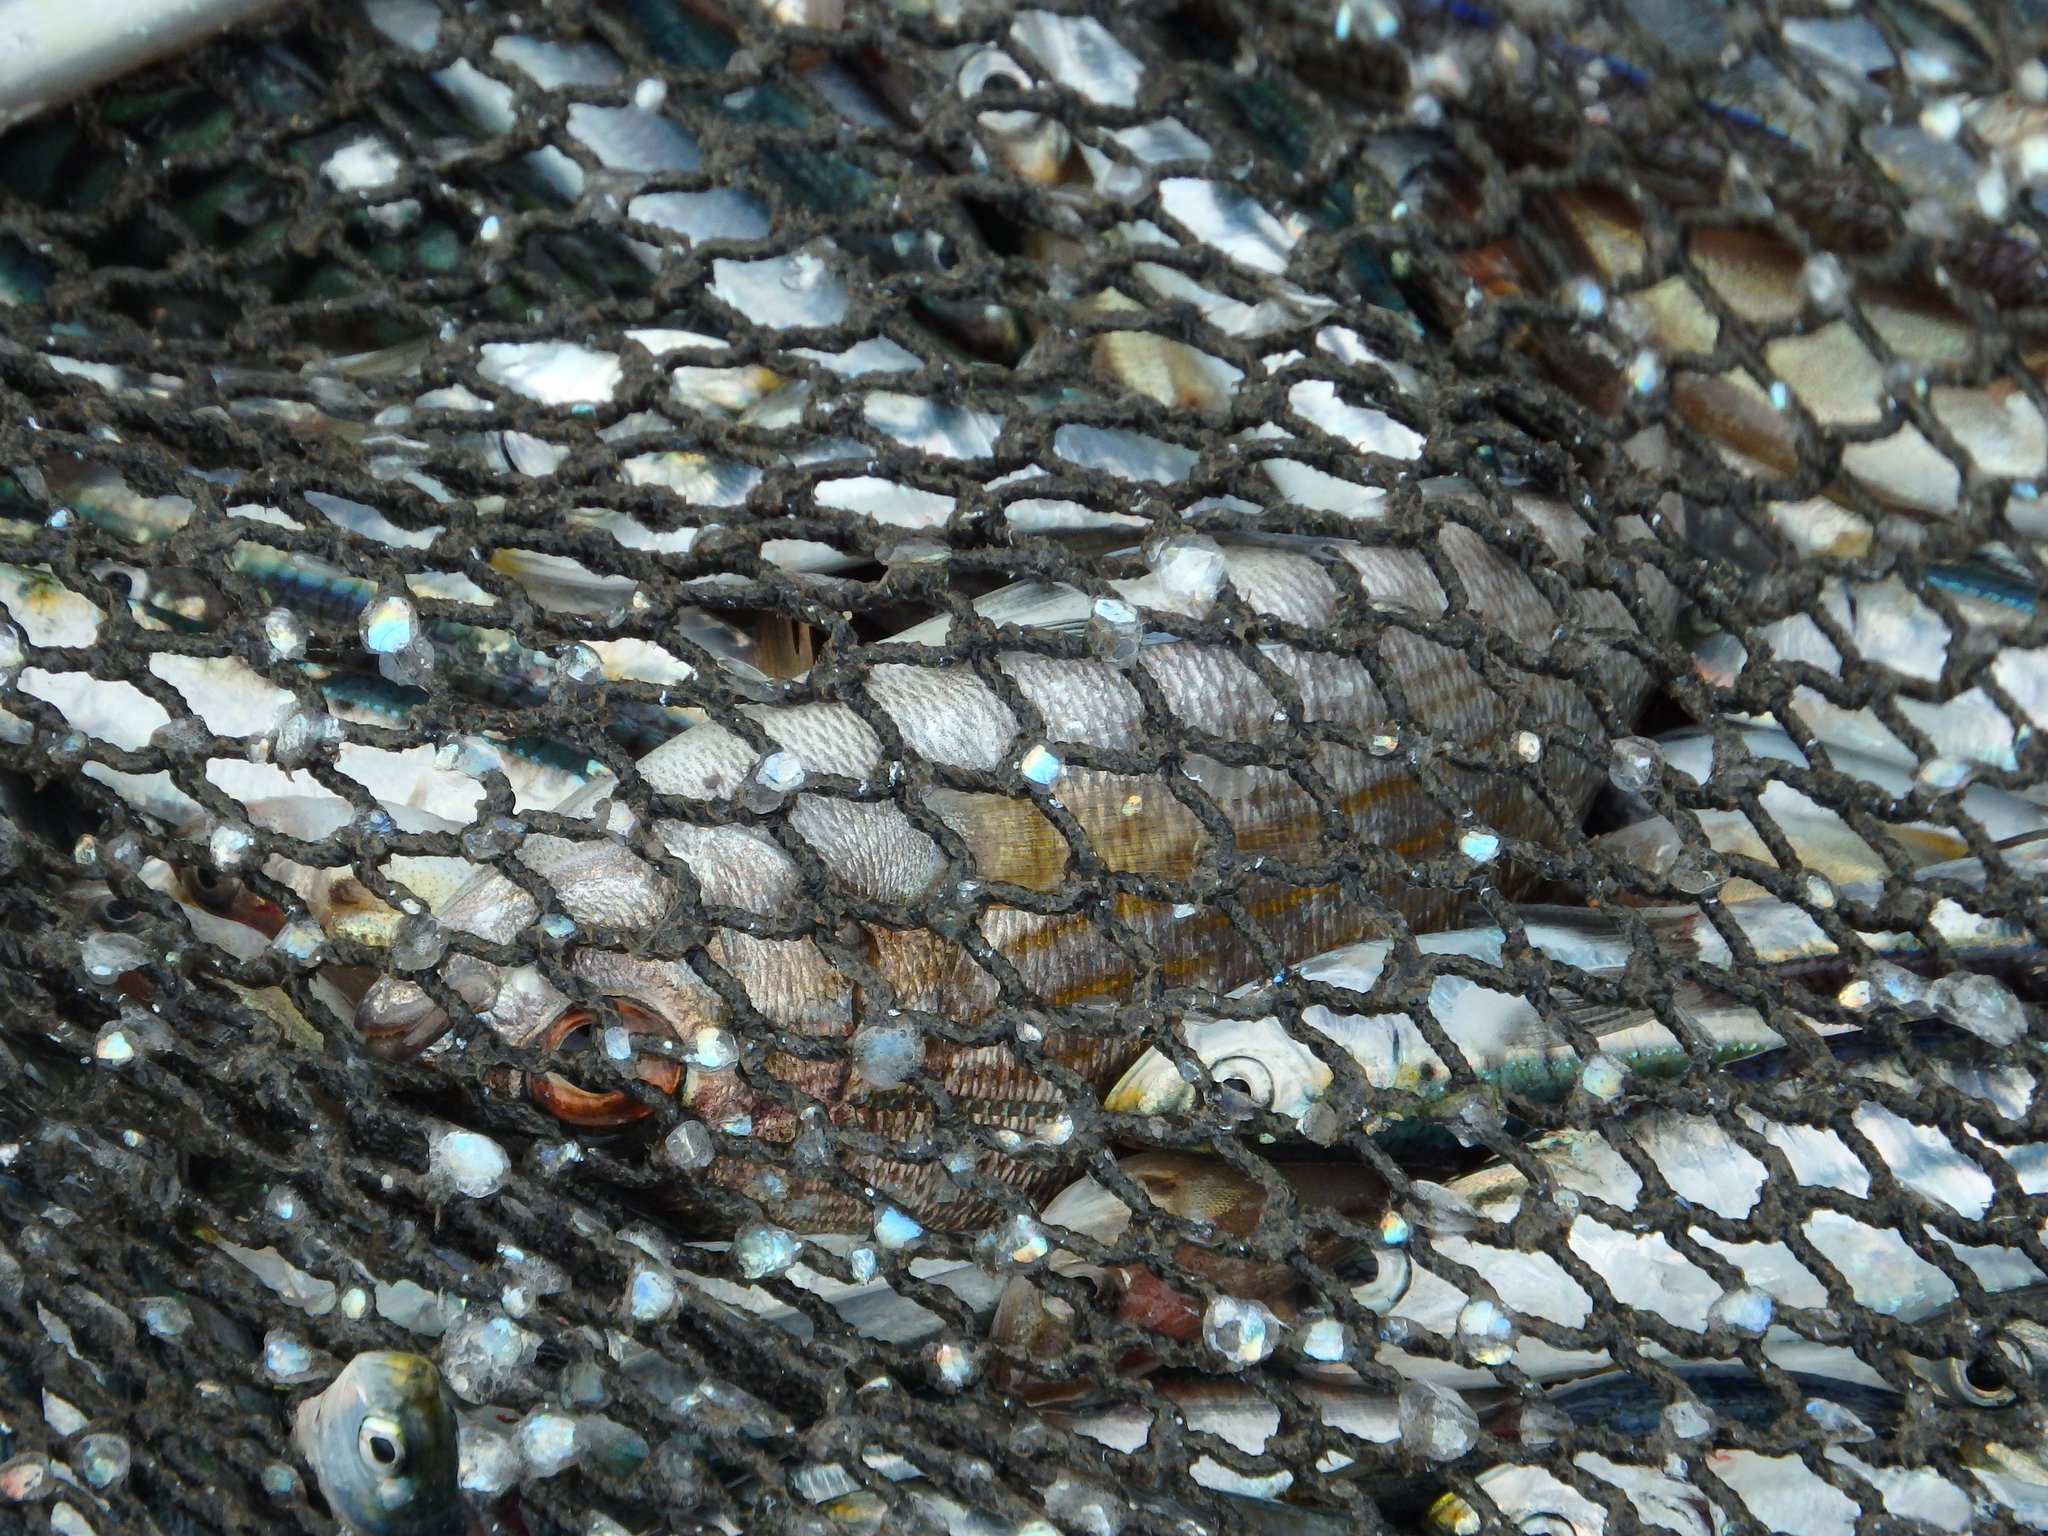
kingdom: Animalia
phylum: Chordata
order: Perciformes
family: Sparidae
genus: Sarpa
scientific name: Sarpa salpa
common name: Salema
